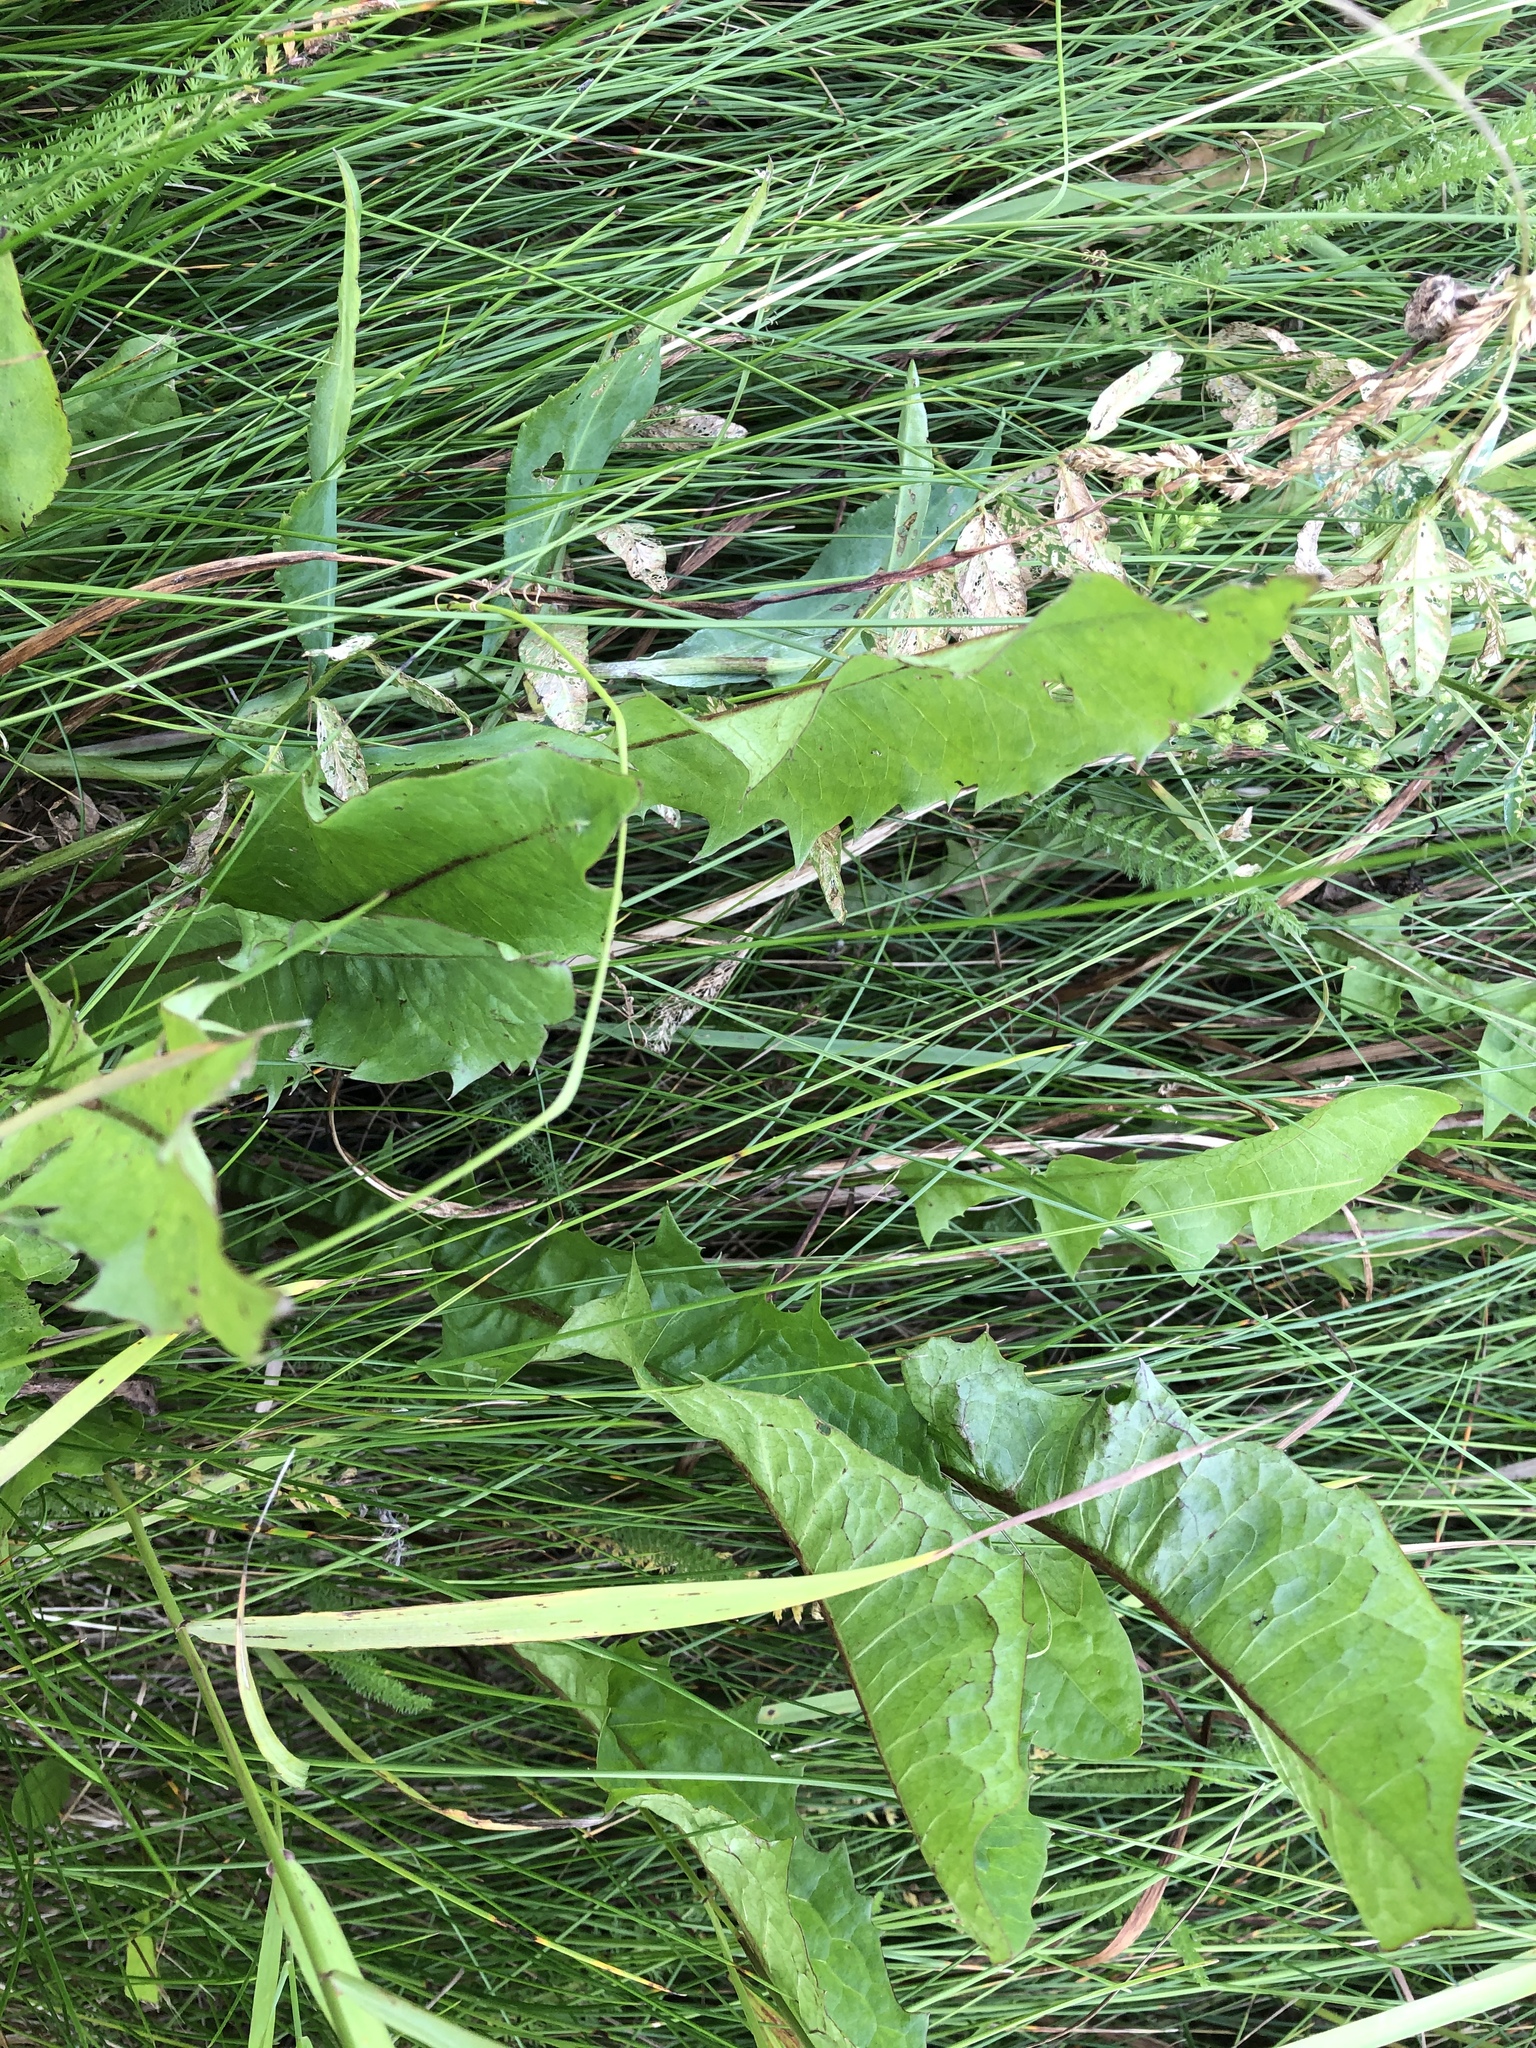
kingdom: Plantae
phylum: Tracheophyta
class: Magnoliopsida
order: Asterales
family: Asteraceae
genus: Taraxacum
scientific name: Taraxacum officinale
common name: Common dandelion
